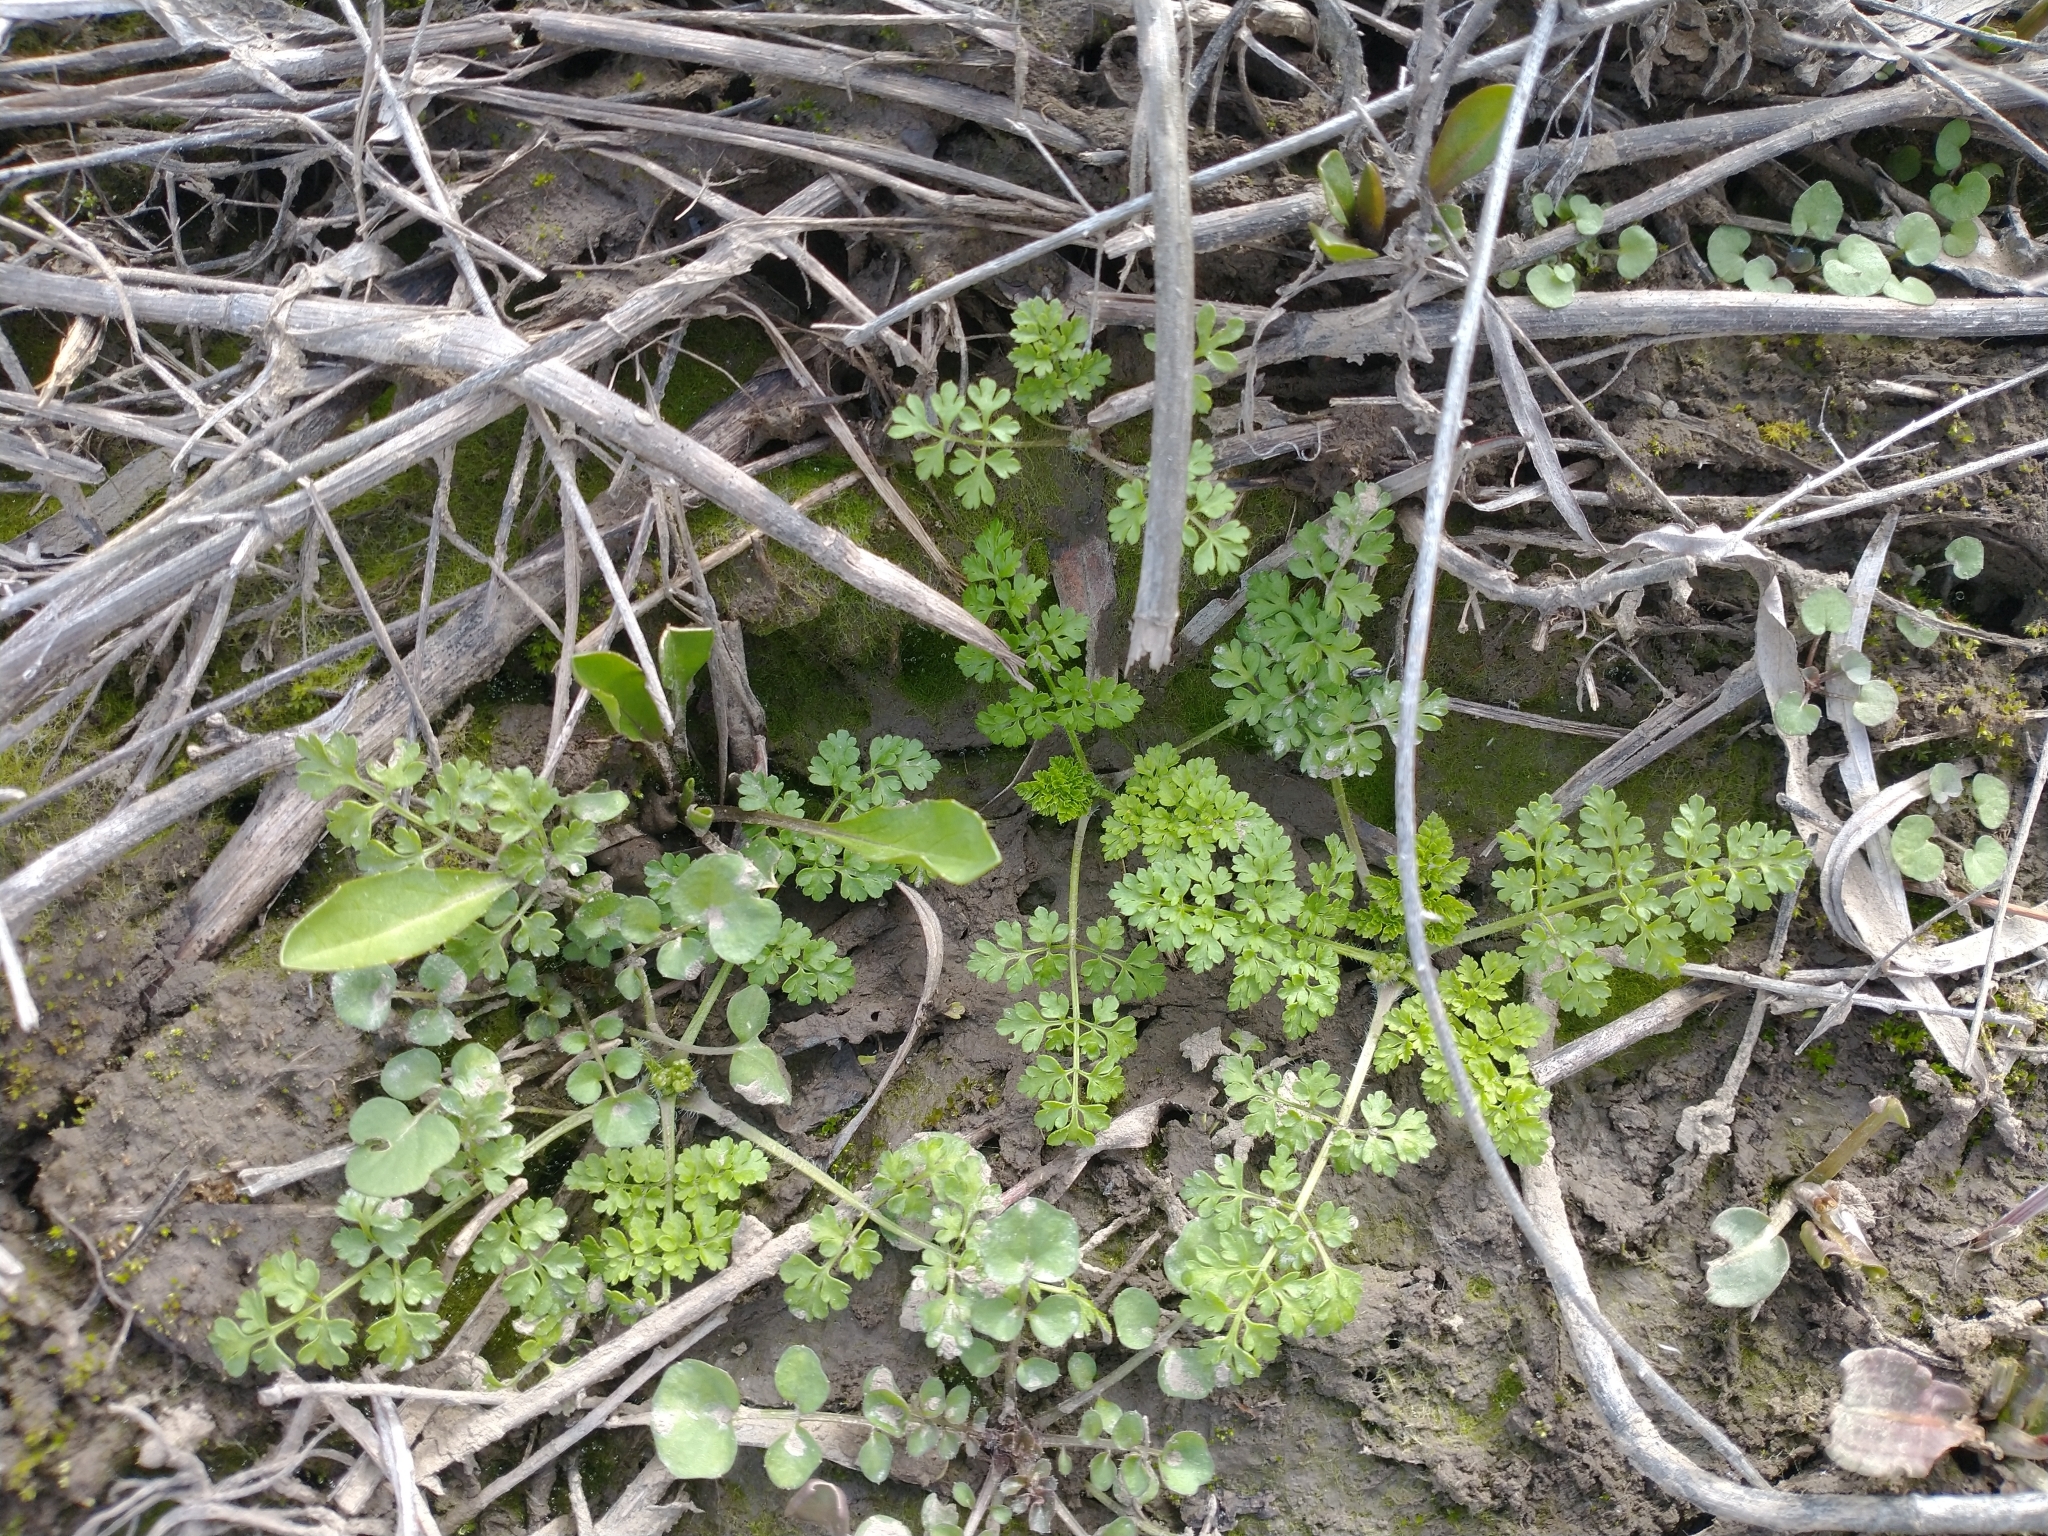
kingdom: Plantae
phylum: Tracheophyta
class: Magnoliopsida
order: Apiales
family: Apiaceae
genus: Anthriscus
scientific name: Anthriscus caucalis
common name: Bur chervil
